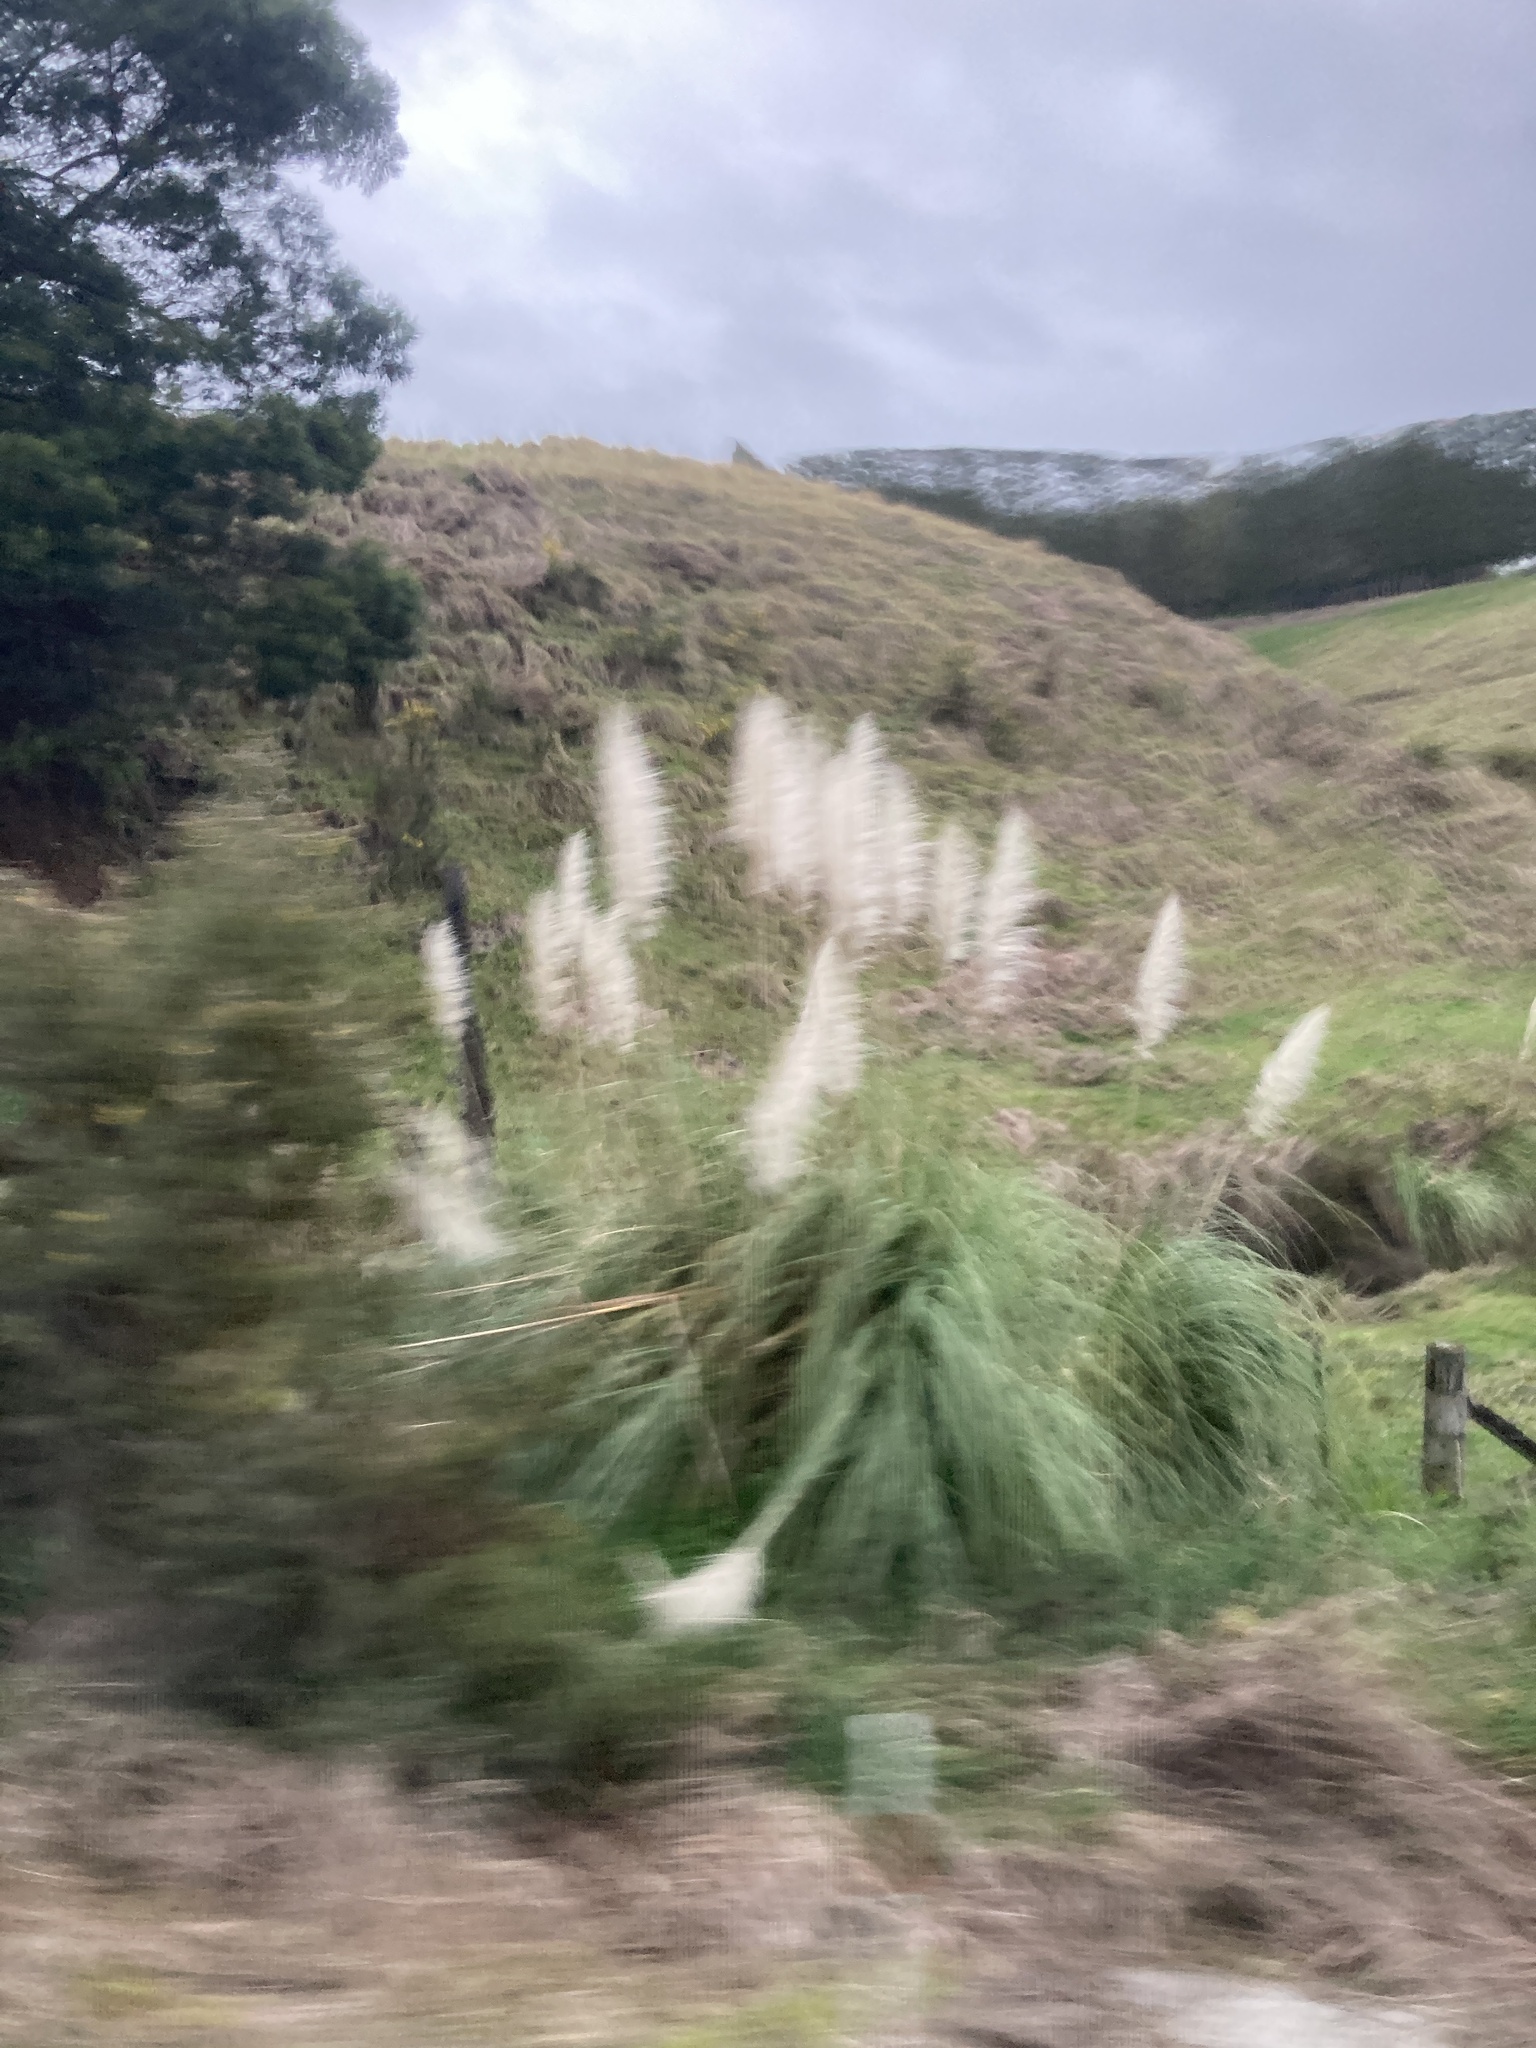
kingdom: Plantae
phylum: Tracheophyta
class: Liliopsida
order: Poales
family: Poaceae
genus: Cortaderia
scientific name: Cortaderia selloana
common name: Uruguayan pampas grass
